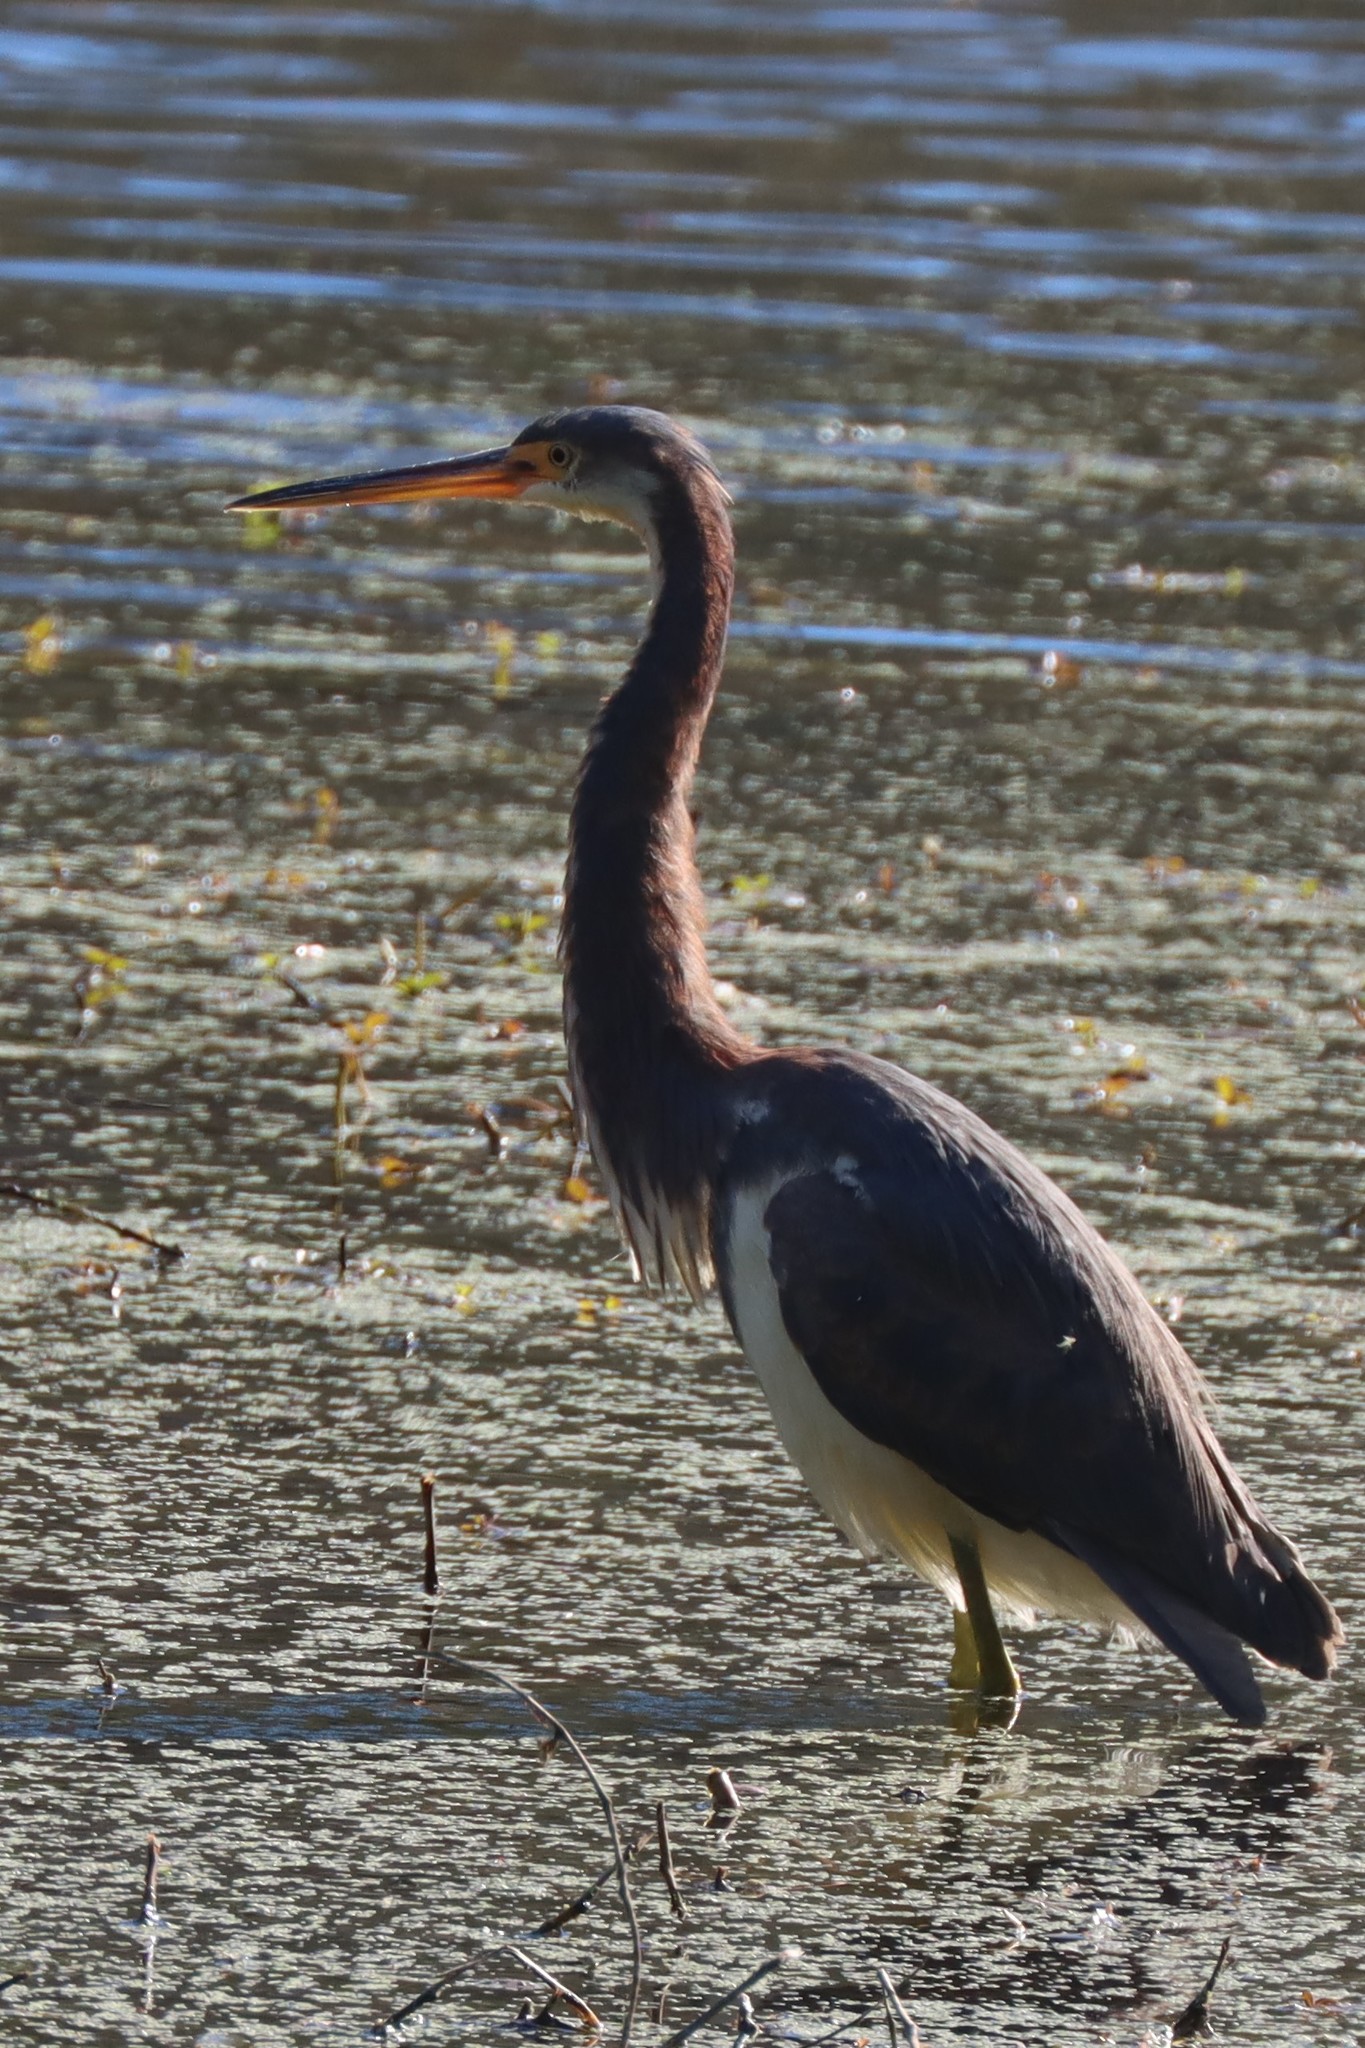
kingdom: Animalia
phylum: Chordata
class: Aves
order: Pelecaniformes
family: Ardeidae
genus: Egretta
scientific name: Egretta tricolor
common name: Tricolored heron
